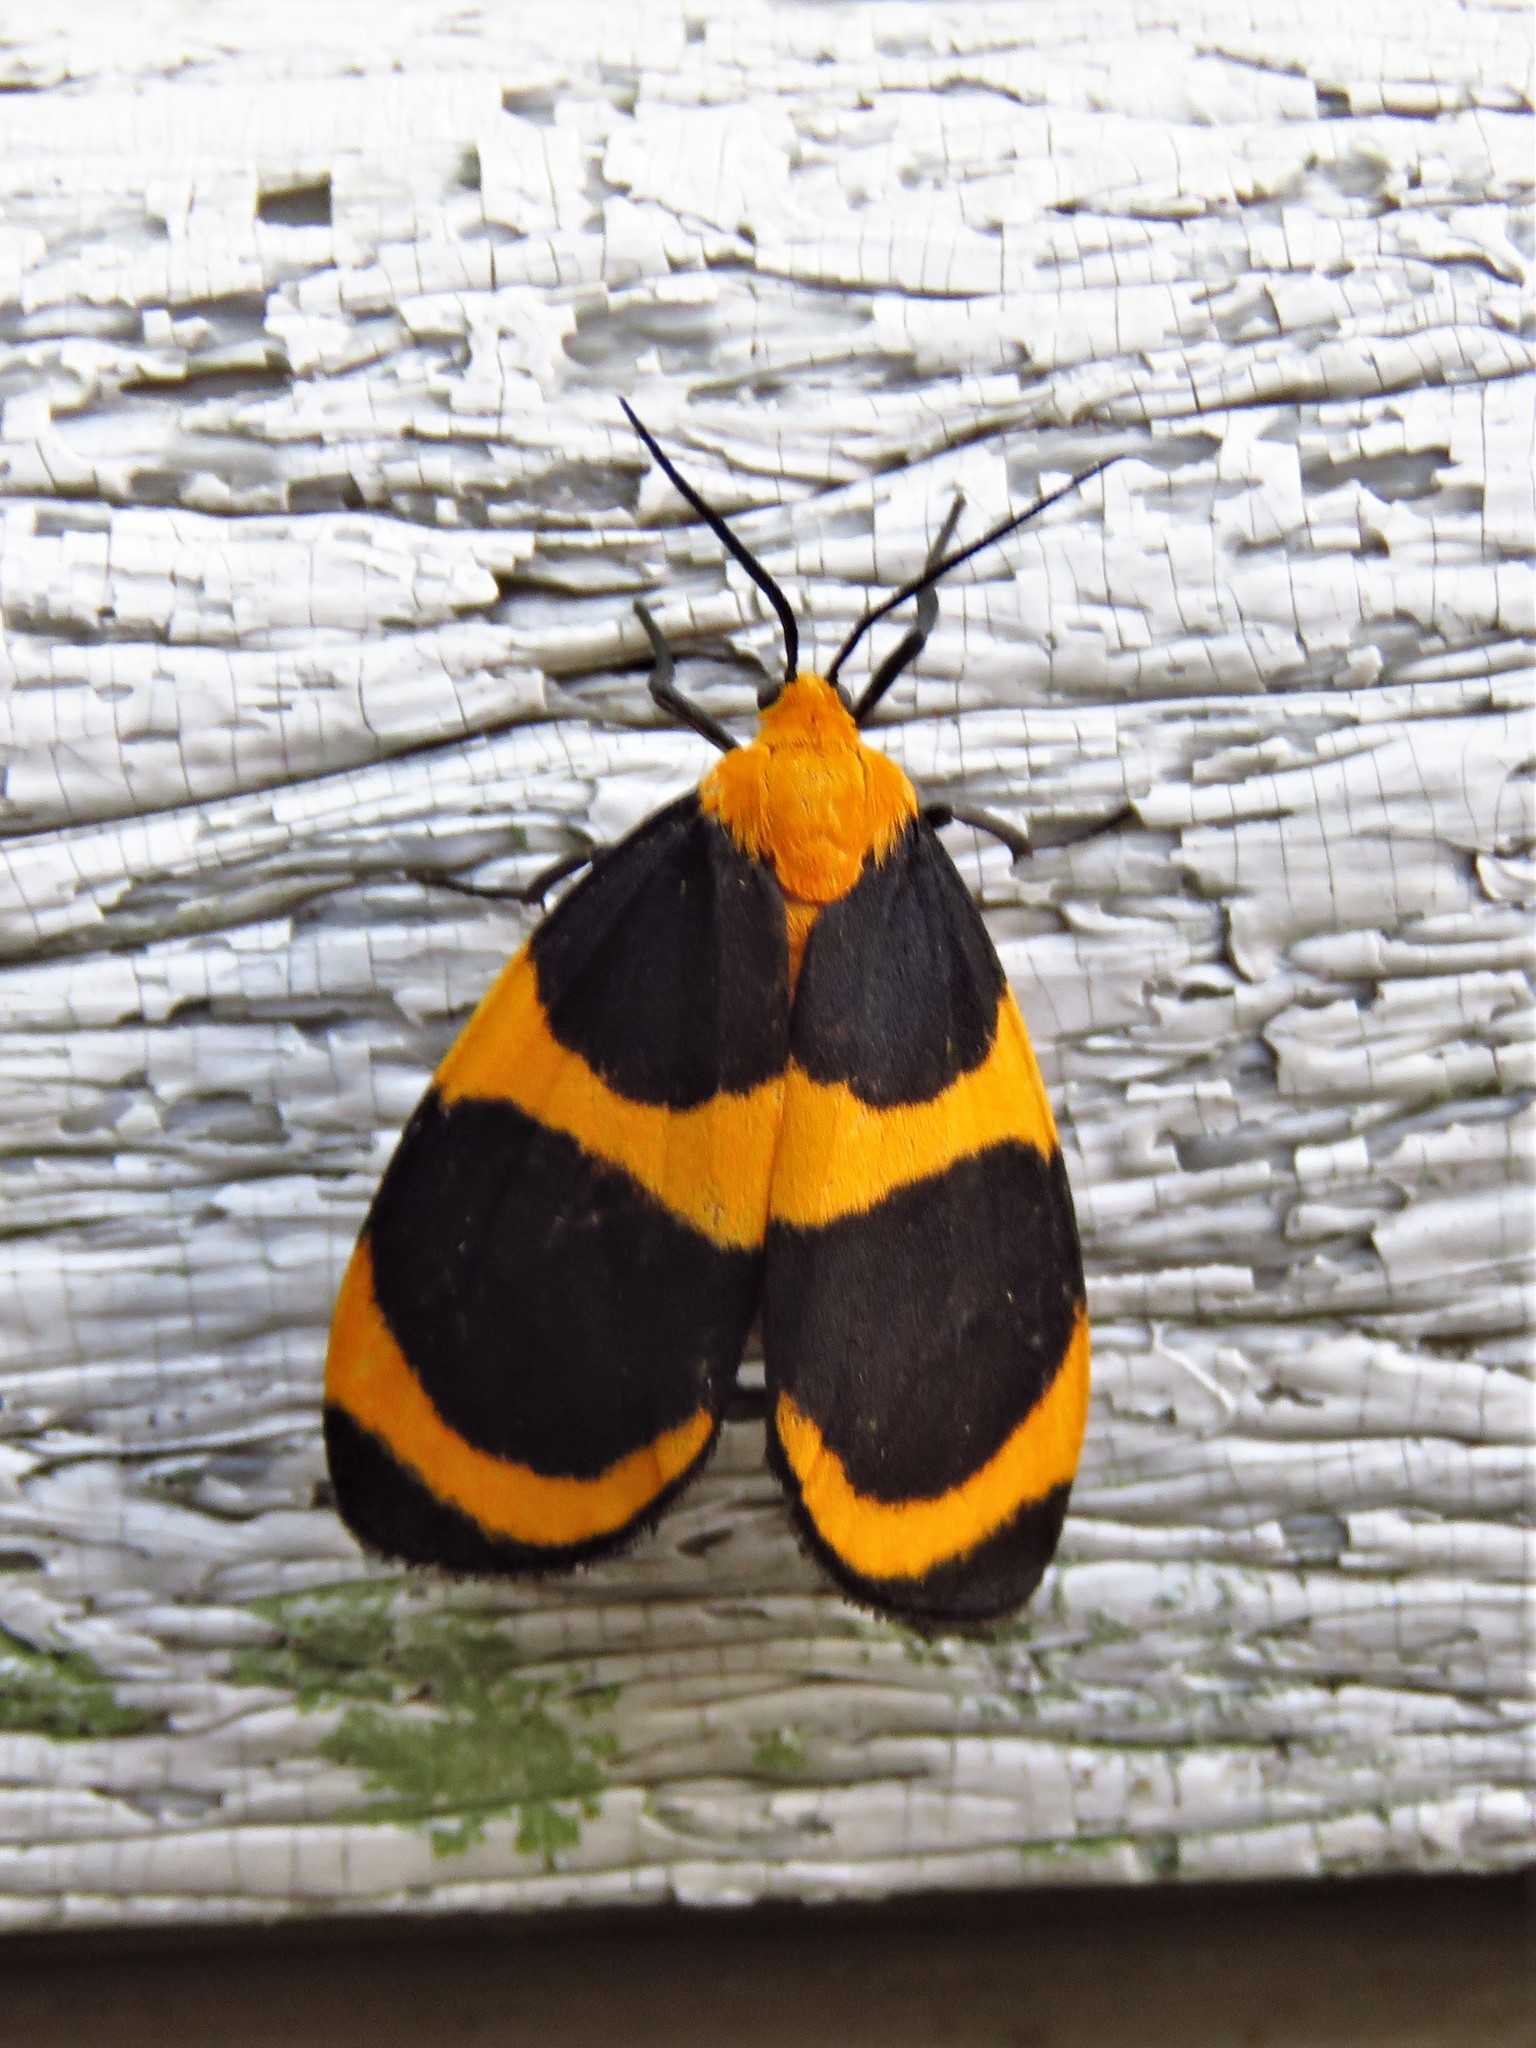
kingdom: Animalia
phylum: Arthropoda
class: Insecta
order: Lepidoptera
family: Erebidae
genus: Eudesmia
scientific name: Eudesmia menea
